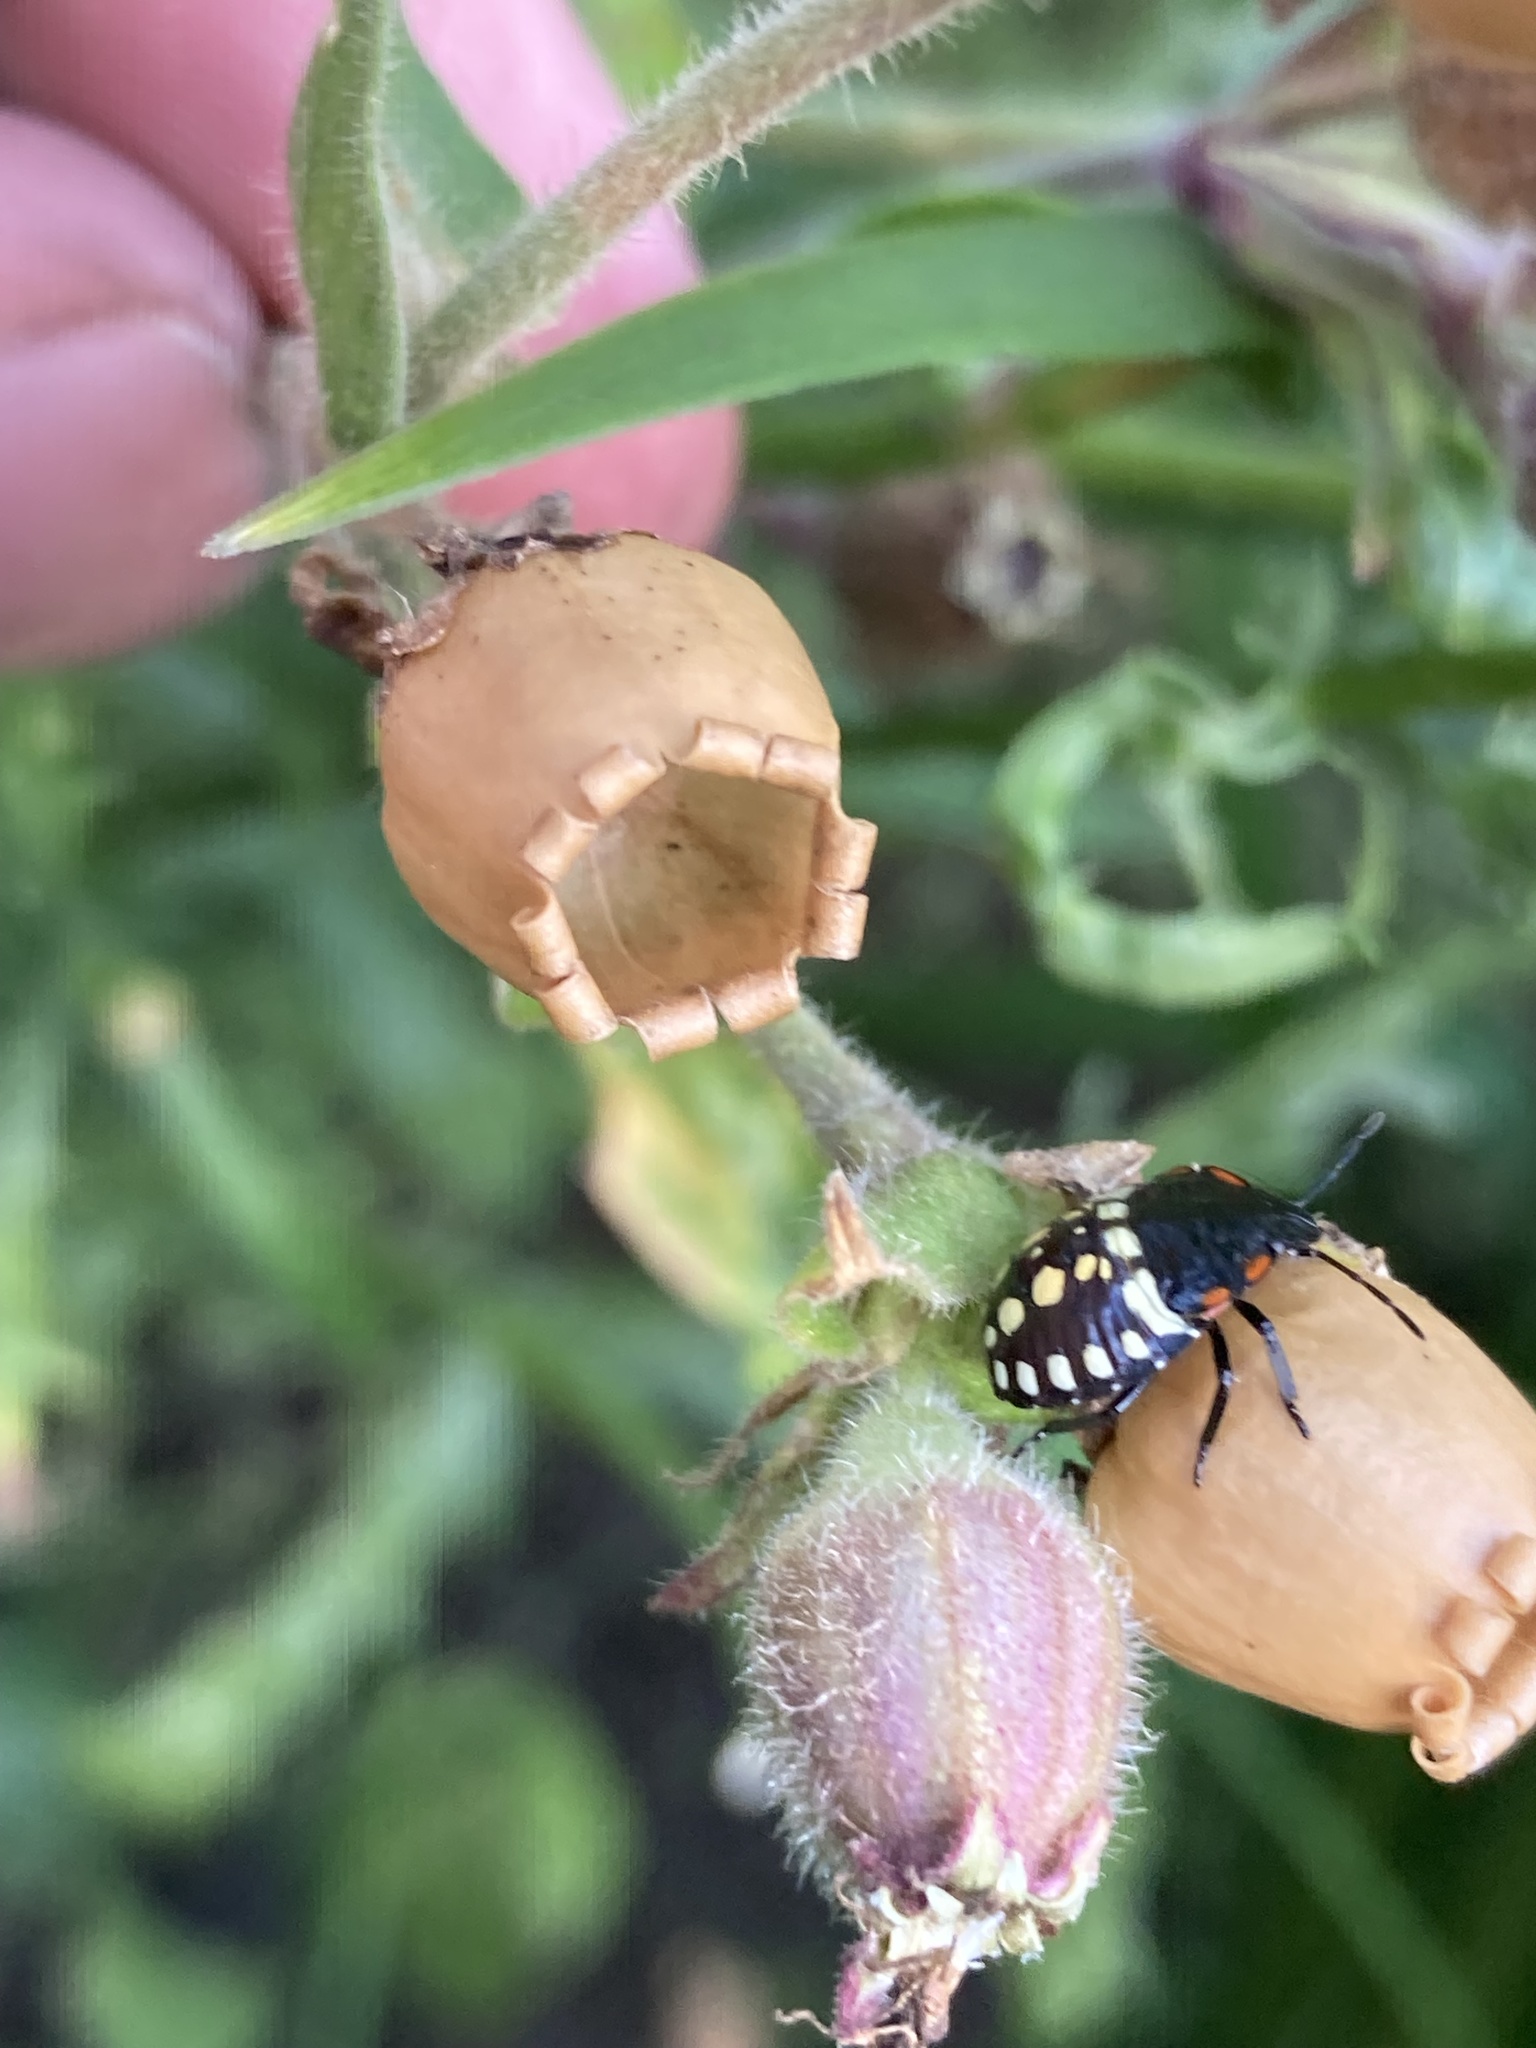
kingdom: Animalia
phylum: Arthropoda
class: Insecta
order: Hemiptera
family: Pentatomidae
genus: Nezara
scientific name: Nezara viridula
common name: Southern green stink bug
